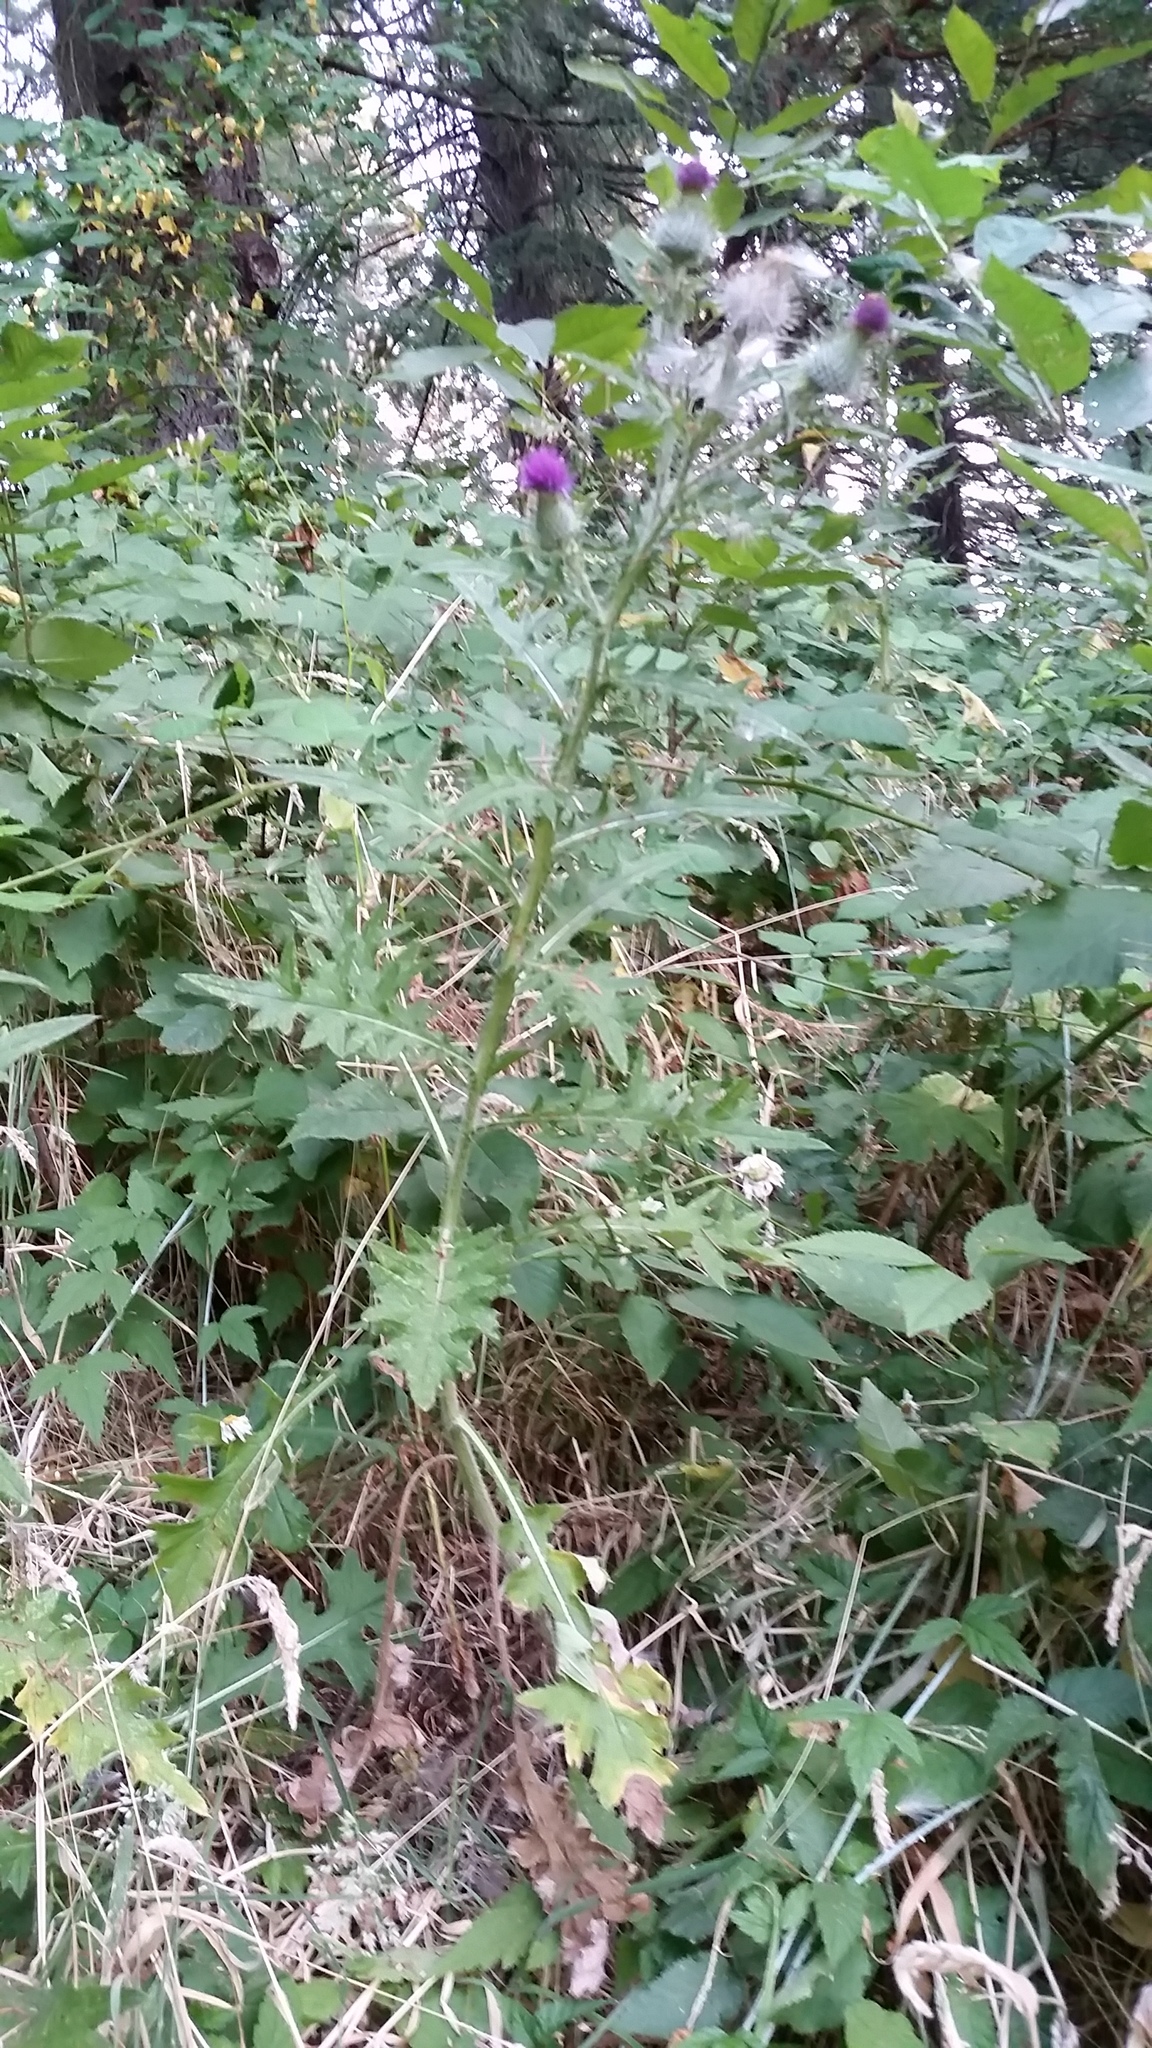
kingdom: Plantae
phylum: Tracheophyta
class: Magnoliopsida
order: Asterales
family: Asteraceae
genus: Cirsium
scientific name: Cirsium vulgare
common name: Bull thistle
